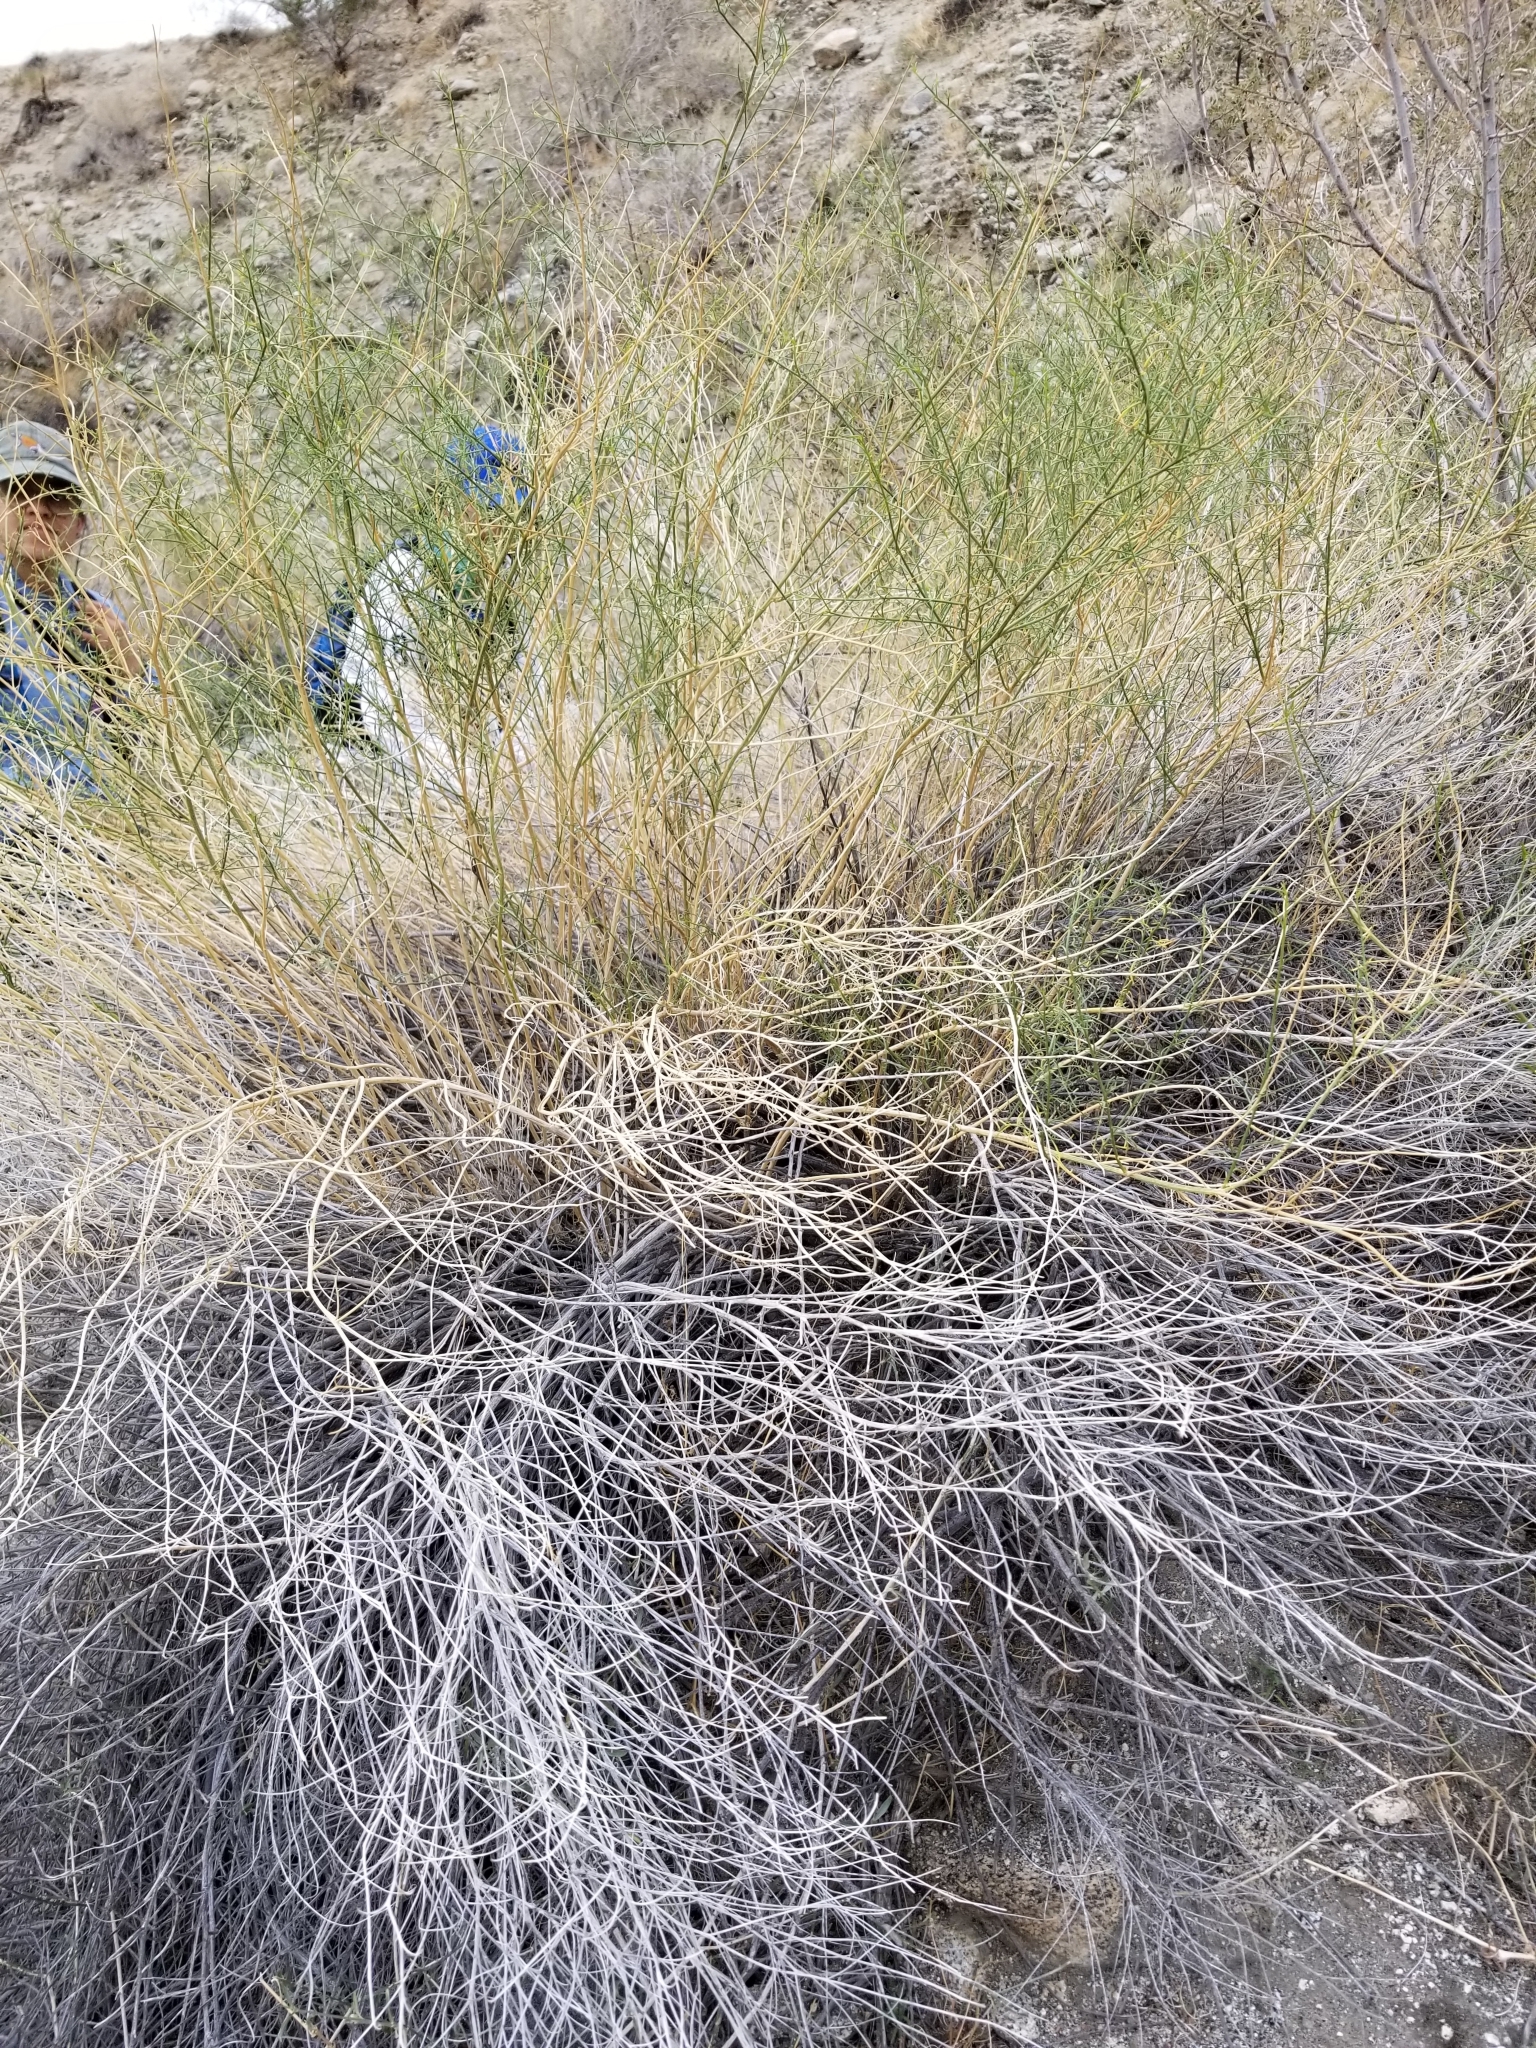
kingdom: Plantae
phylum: Tracheophyta
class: Magnoliopsida
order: Asterales
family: Asteraceae
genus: Ambrosia
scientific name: Ambrosia salsola
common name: Burrobrush
